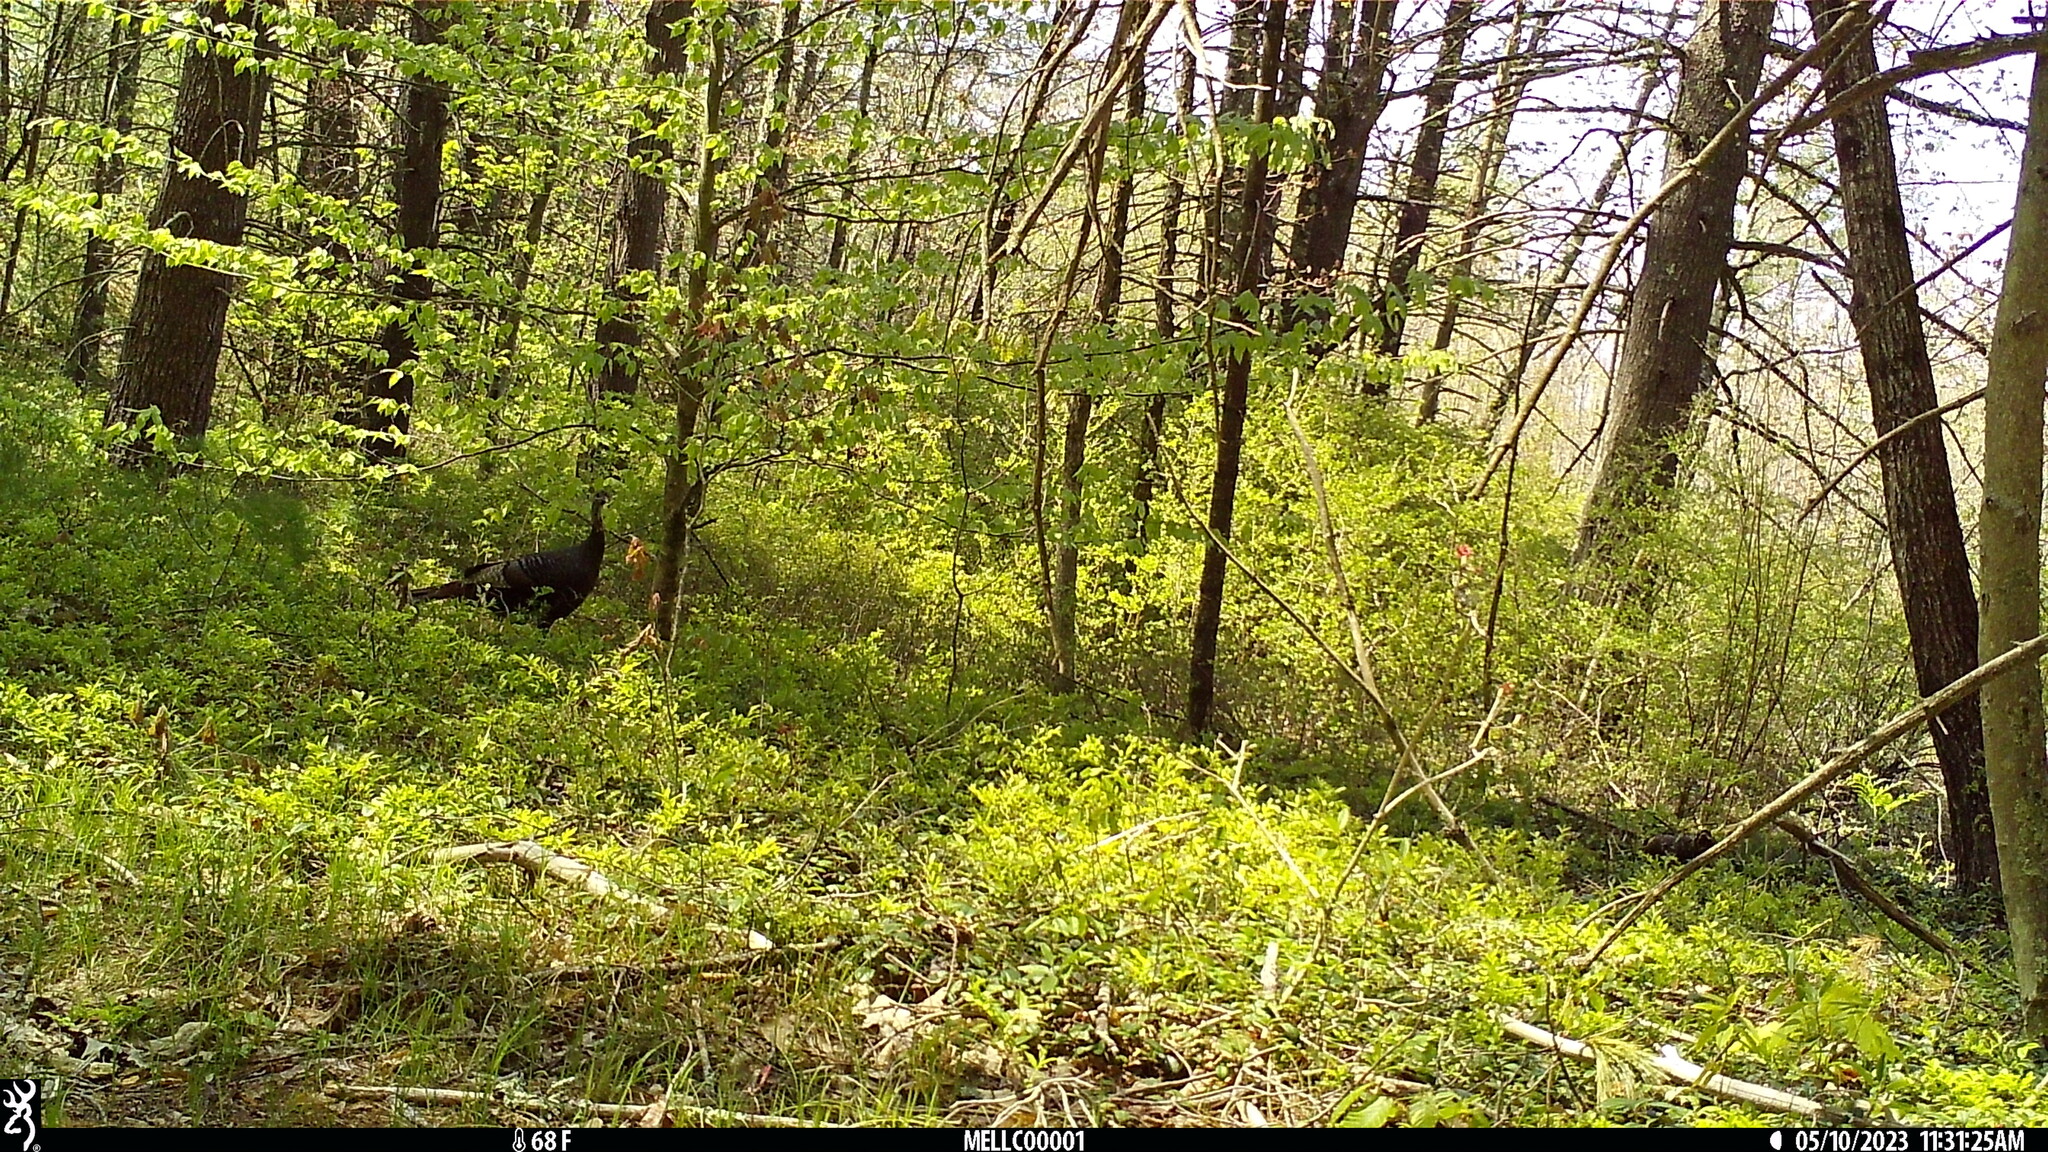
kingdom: Animalia
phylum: Chordata
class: Aves
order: Galliformes
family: Phasianidae
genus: Meleagris
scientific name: Meleagris gallopavo
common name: Wild turkey
